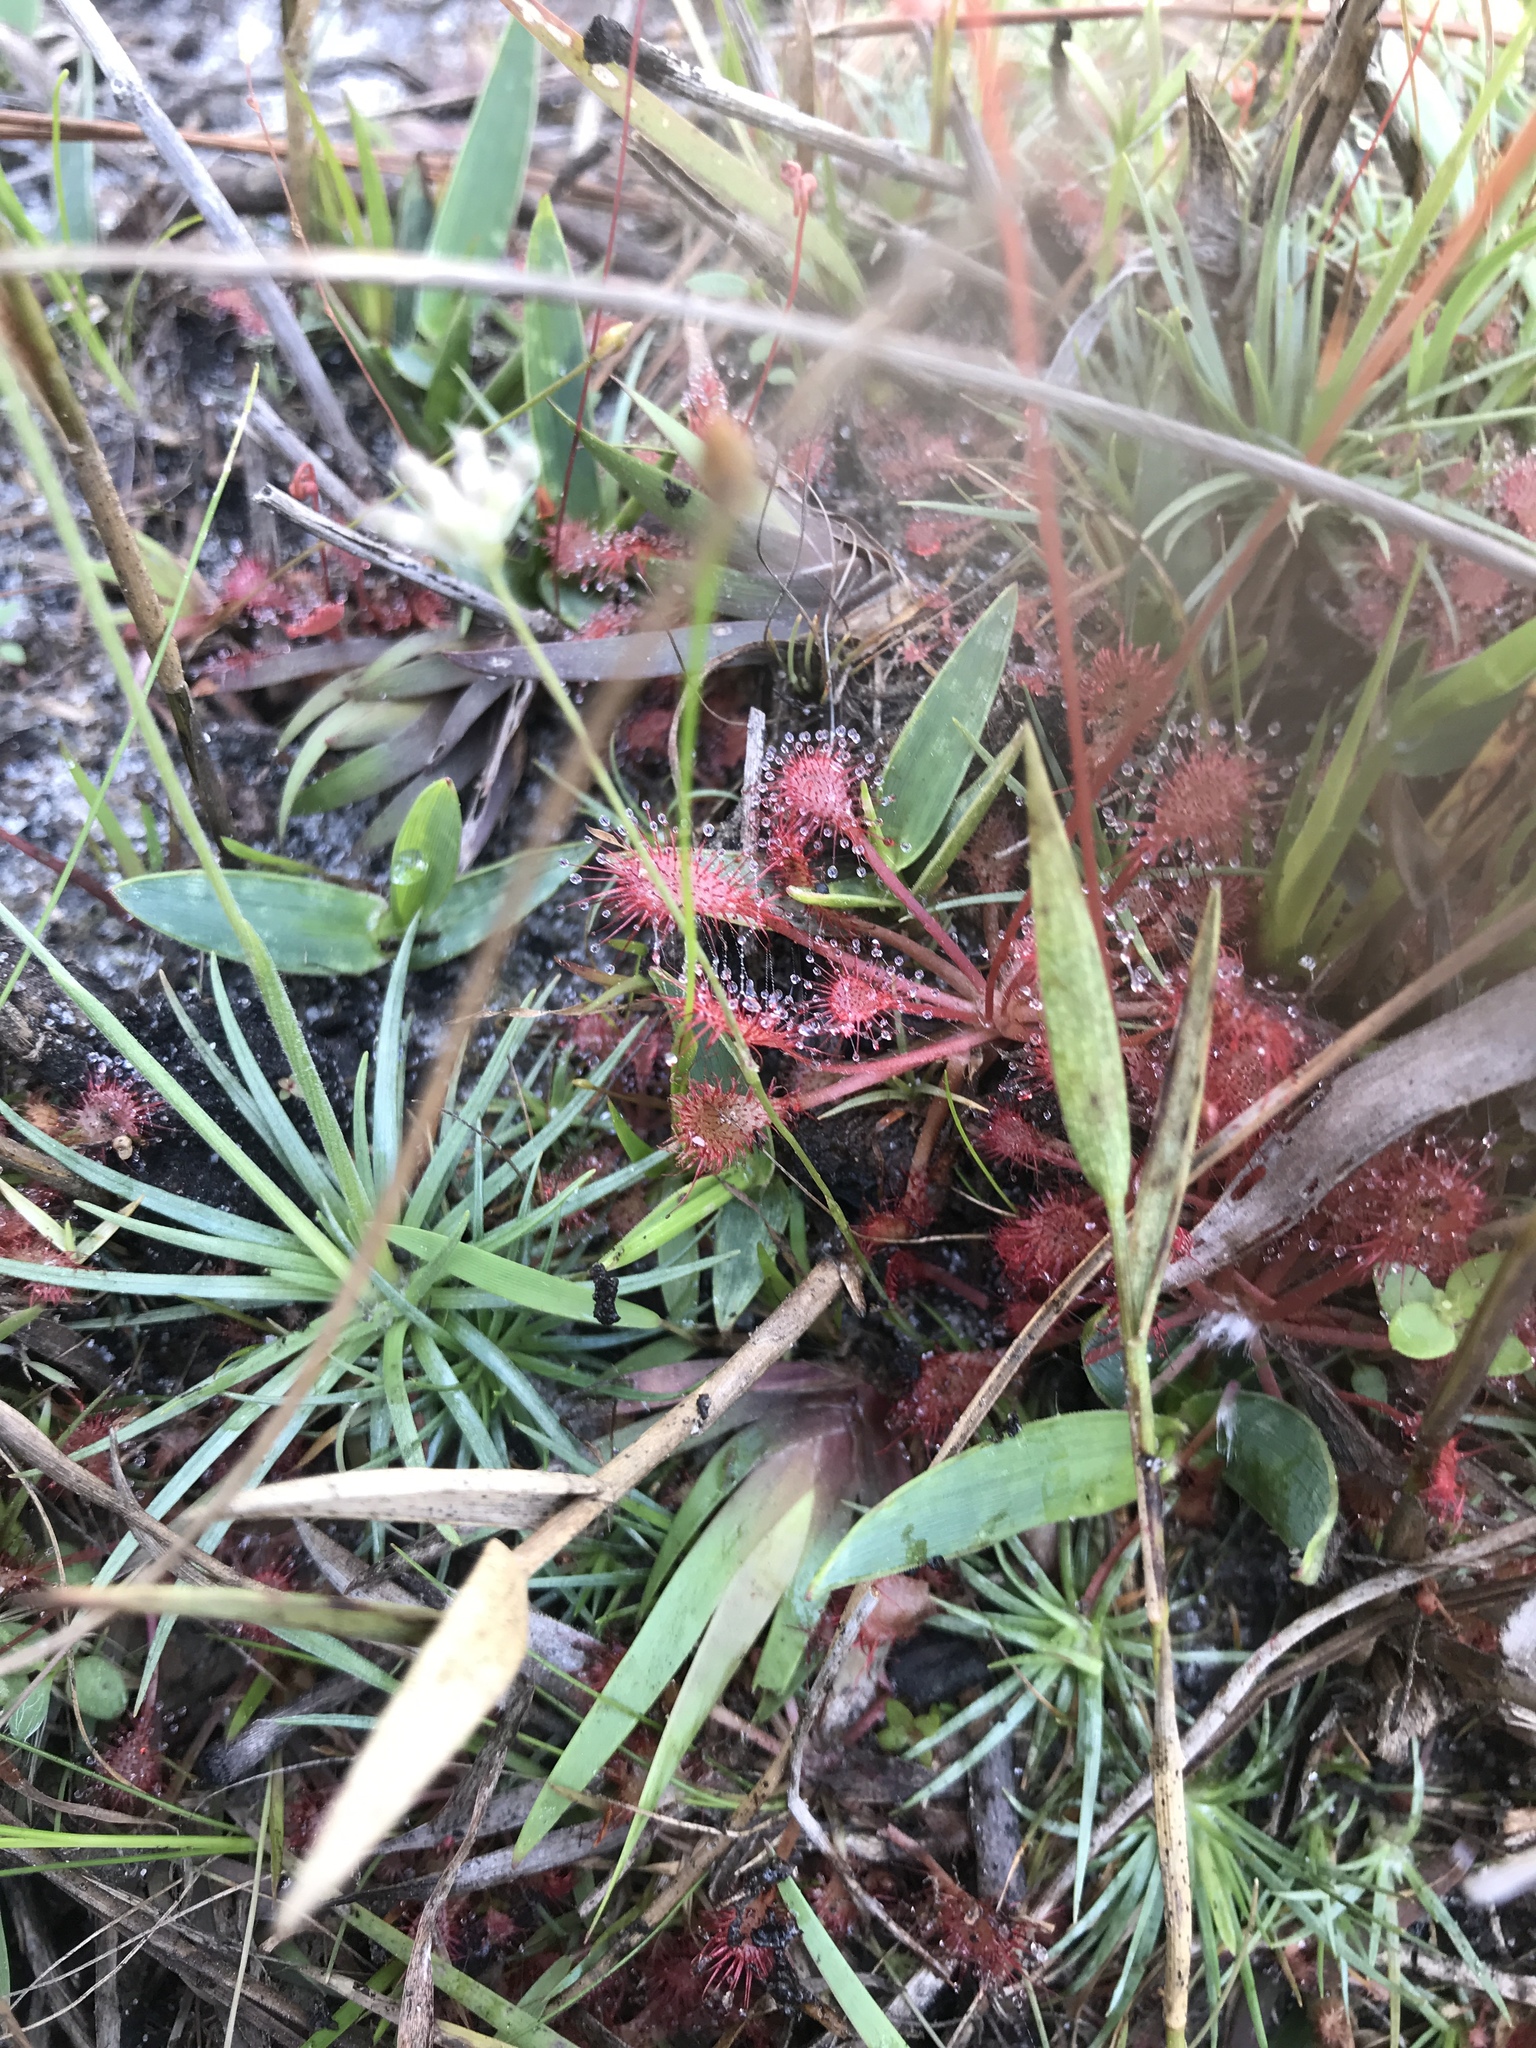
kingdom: Plantae
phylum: Tracheophyta
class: Magnoliopsida
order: Caryophyllales
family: Droseraceae
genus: Drosera
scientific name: Drosera capillaris
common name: Pink sundew
